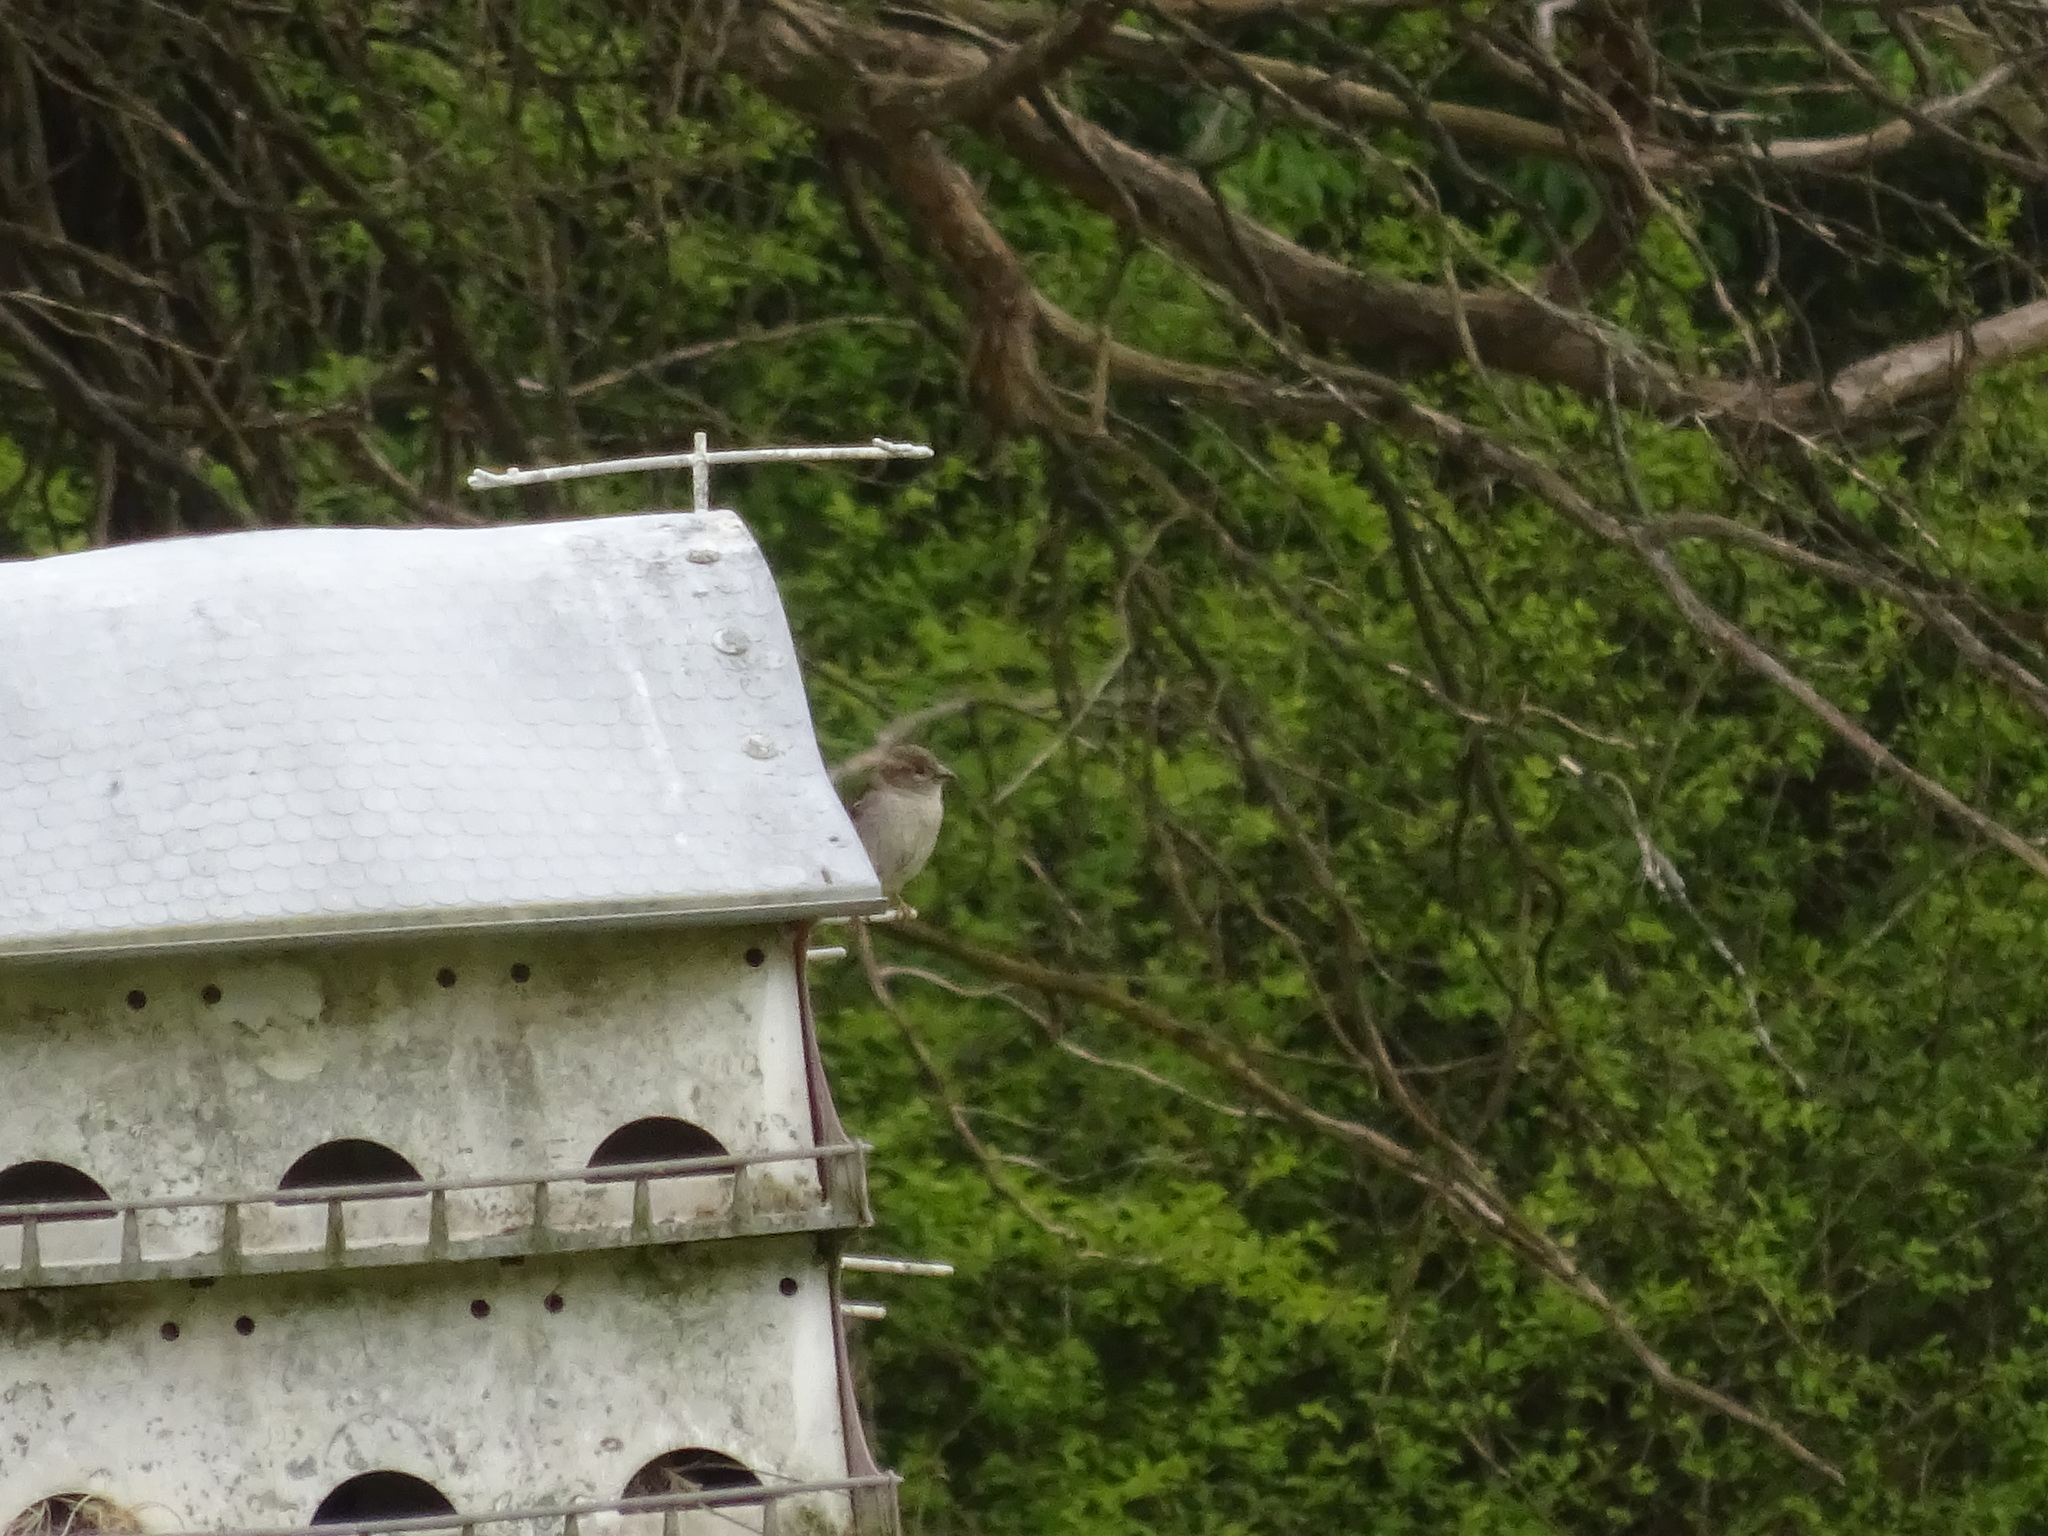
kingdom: Animalia
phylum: Chordata
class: Aves
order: Passeriformes
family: Passeridae
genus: Passer
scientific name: Passer domesticus
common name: House sparrow
